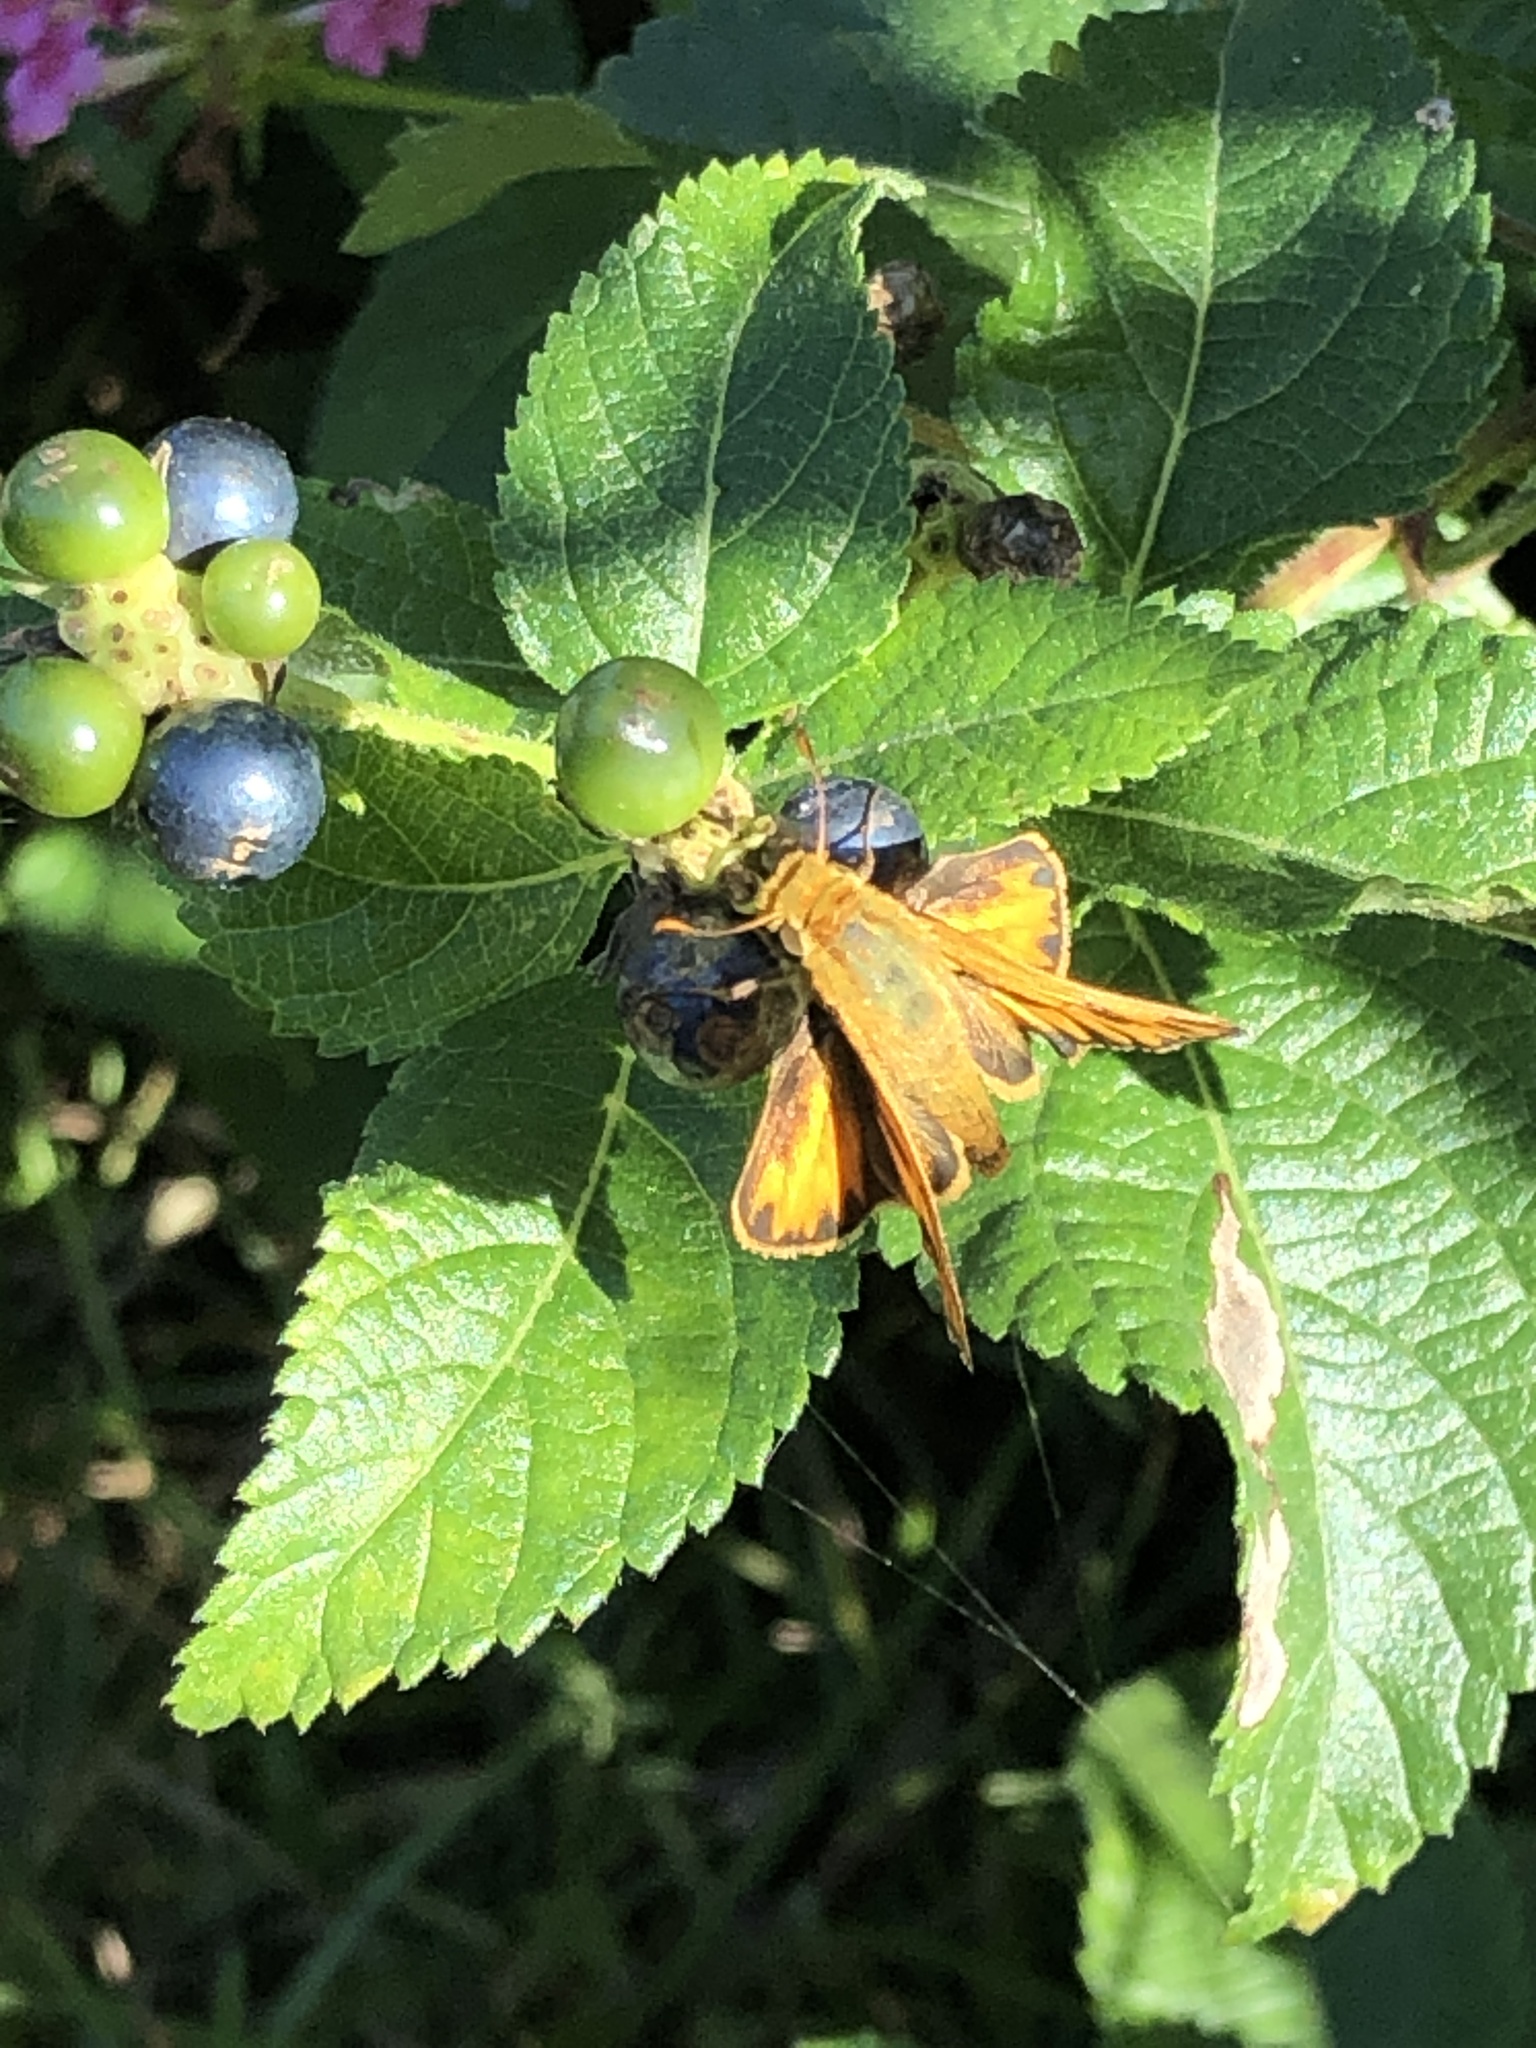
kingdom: Animalia
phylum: Arthropoda
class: Insecta
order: Lepidoptera
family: Hesperiidae
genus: Hylephila
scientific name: Hylephila phyleus
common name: Fiery skipper
